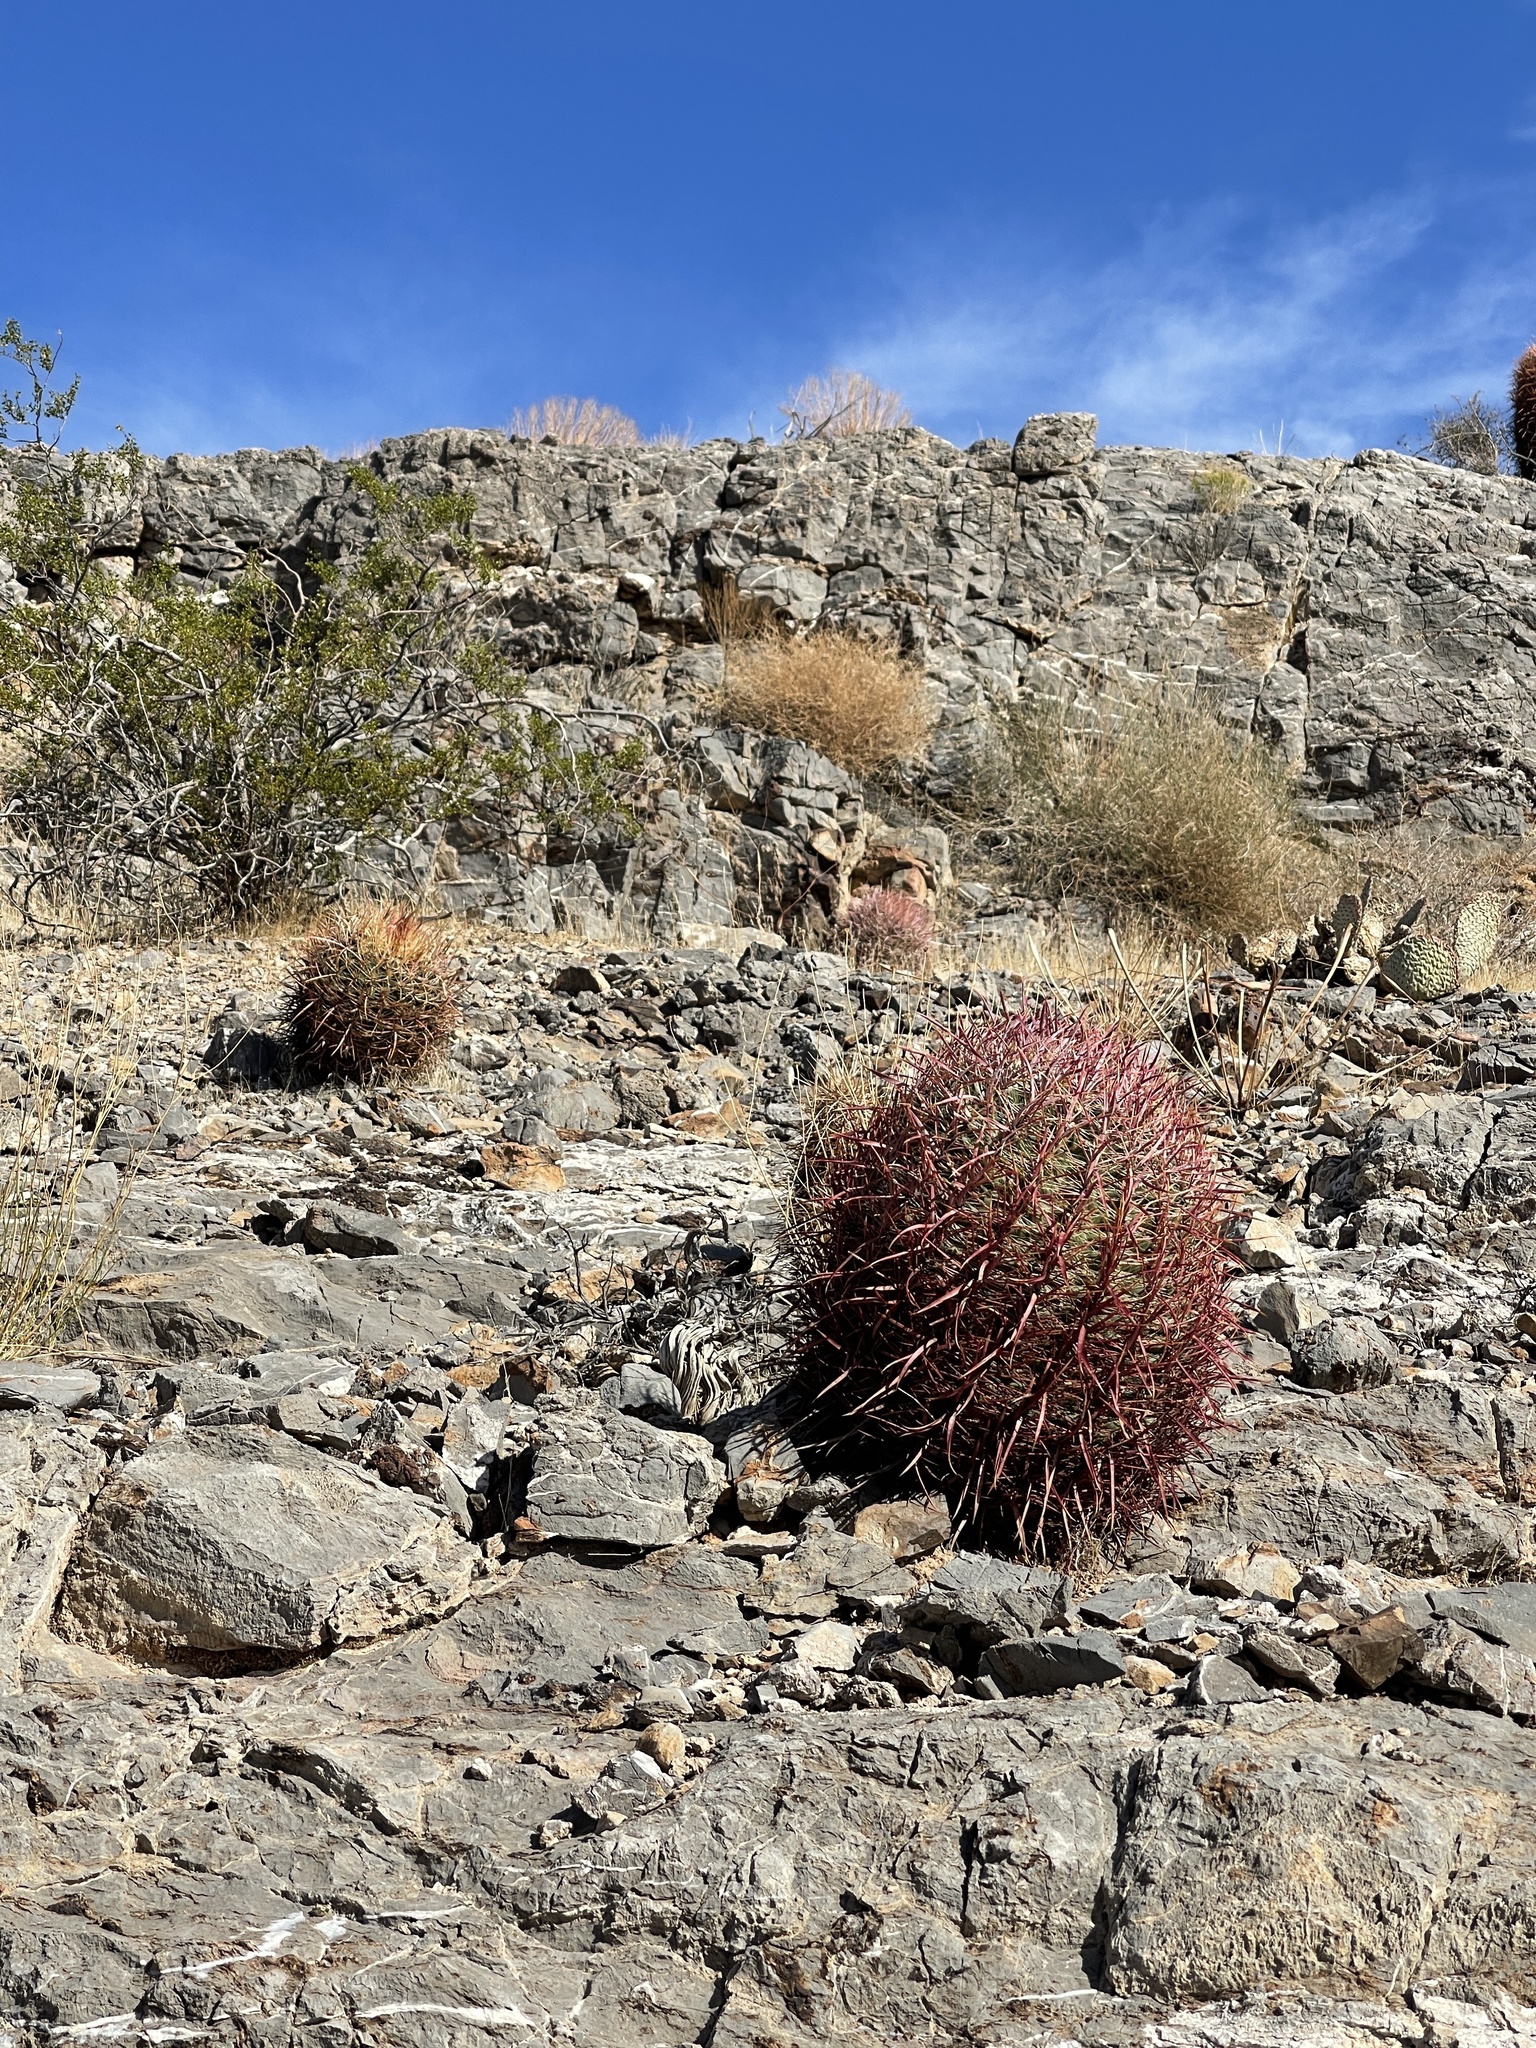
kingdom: Plantae
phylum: Tracheophyta
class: Magnoliopsida
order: Caryophyllales
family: Cactaceae
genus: Ferocactus
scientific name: Ferocactus cylindraceus
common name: California barrel cactus
